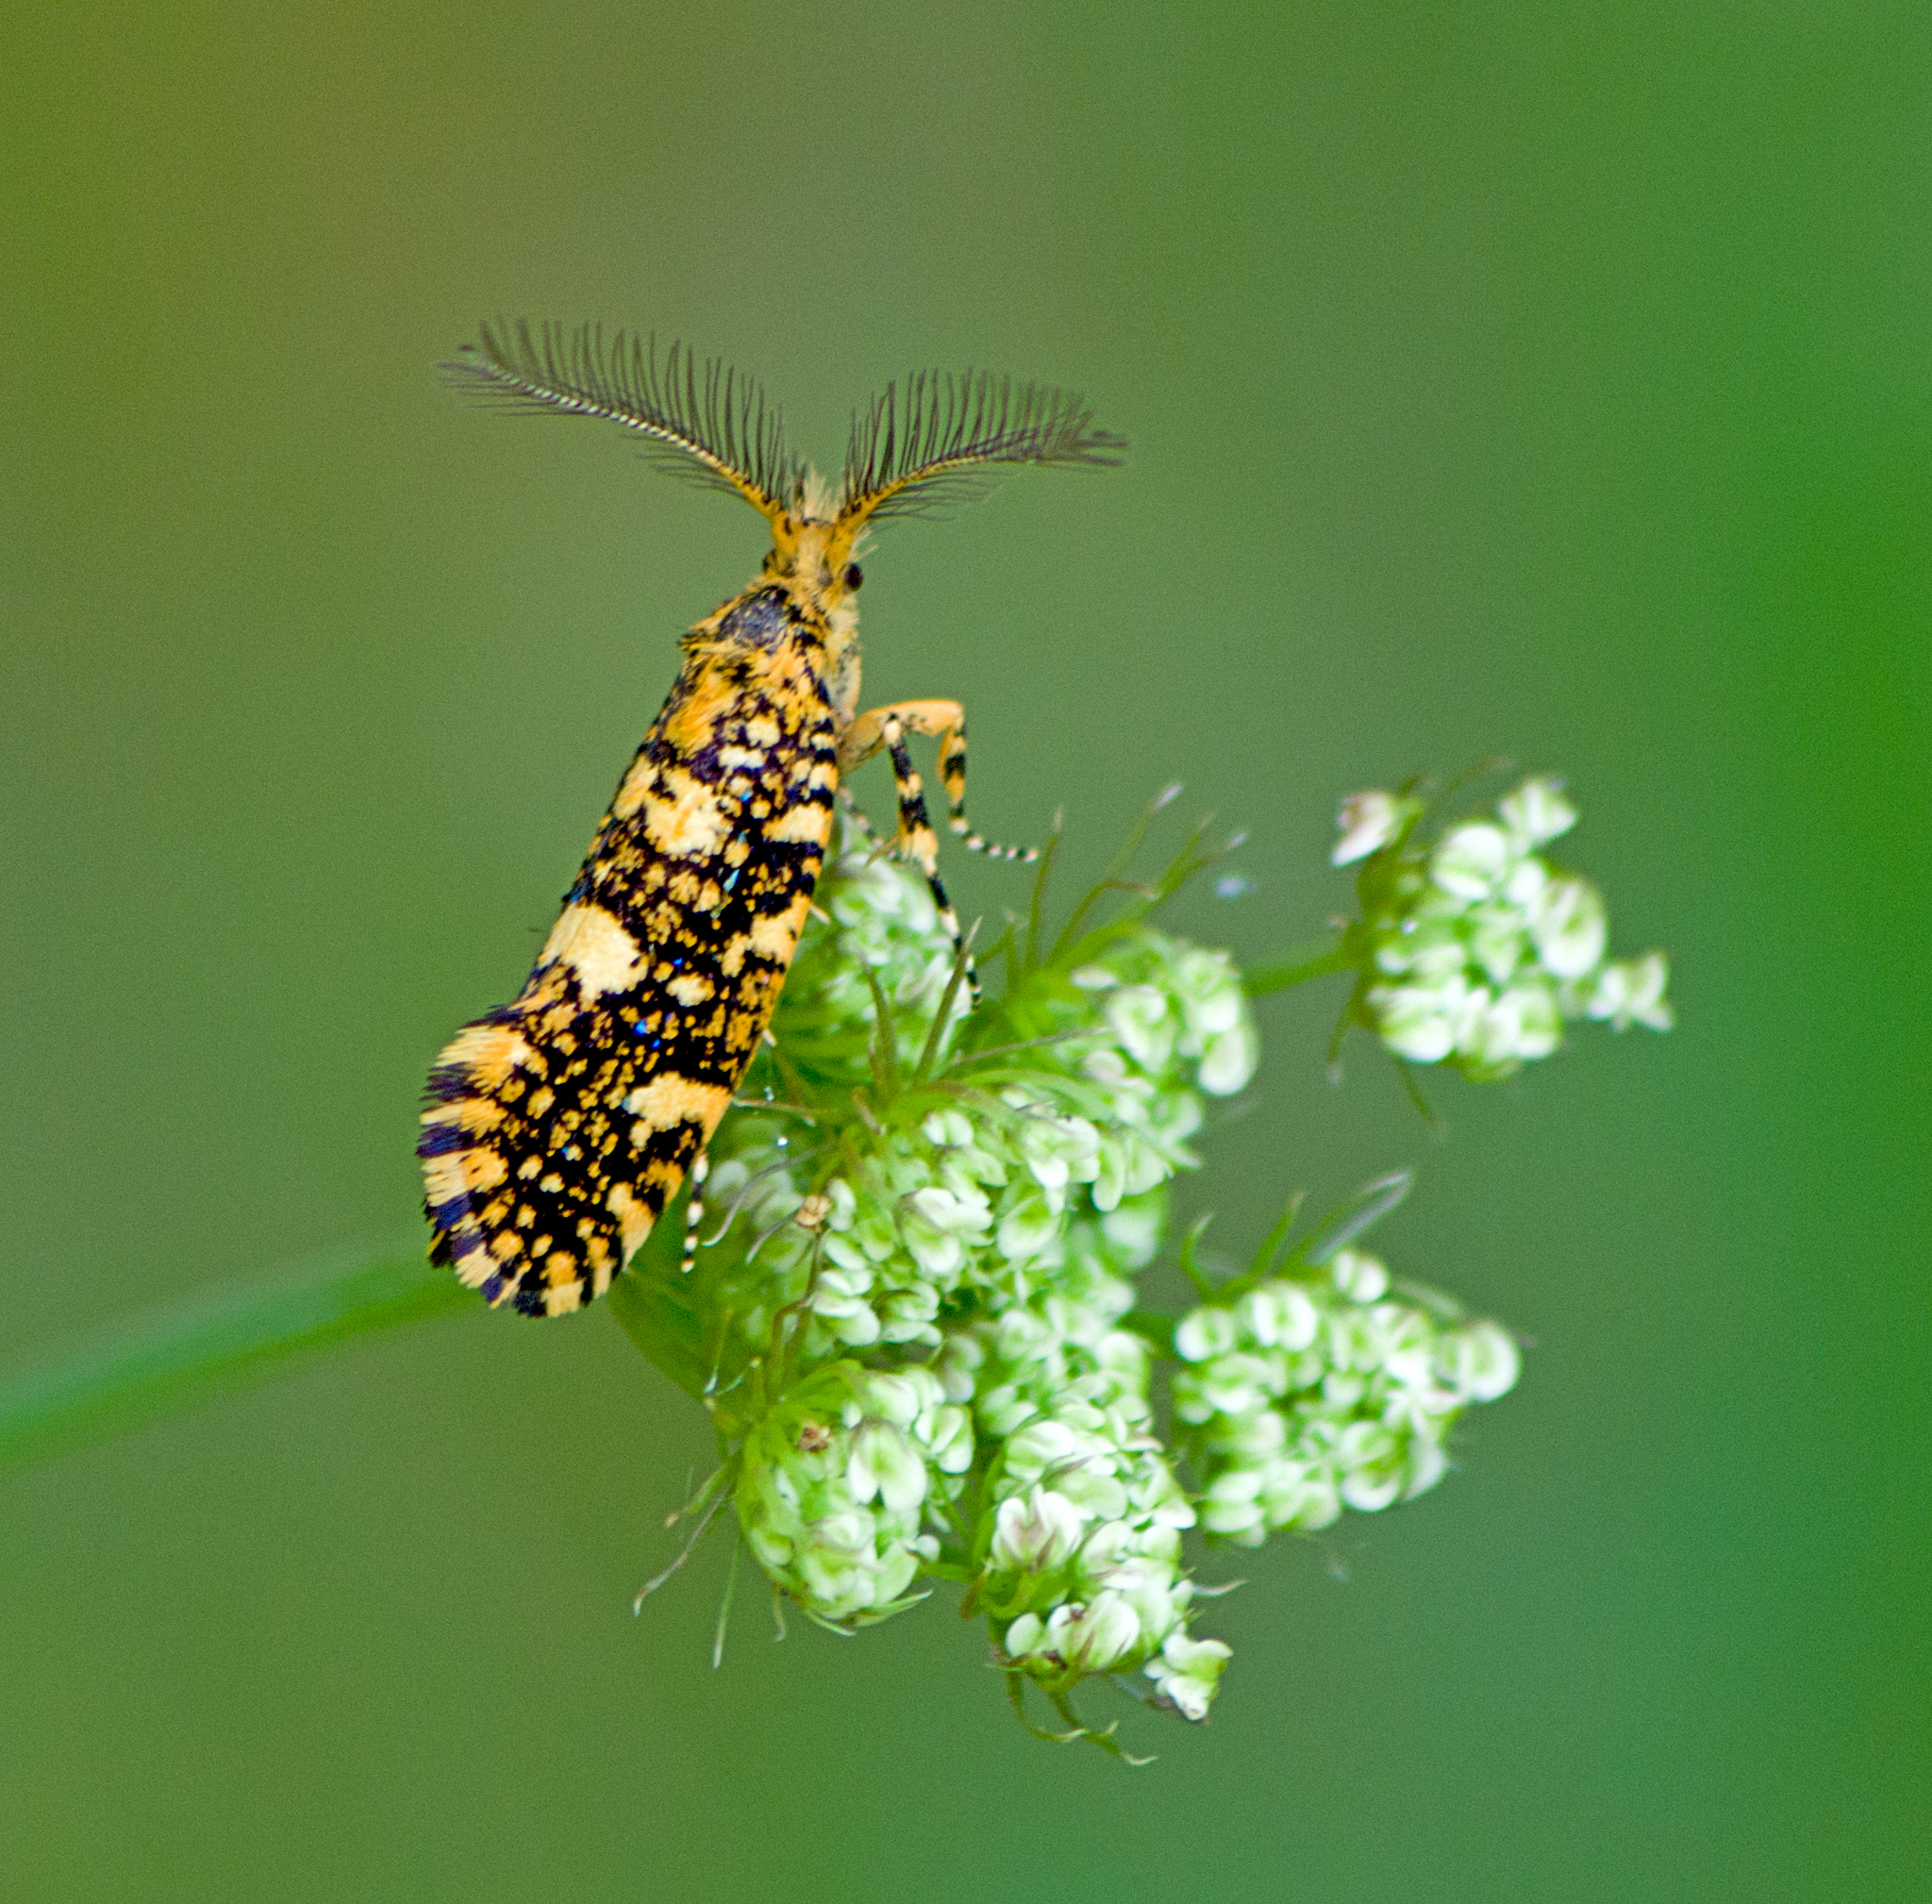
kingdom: Animalia
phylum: Arthropoda
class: Insecta
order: Lepidoptera
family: Tineidae
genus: Euplocamus
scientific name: Euplocamus ophisa
